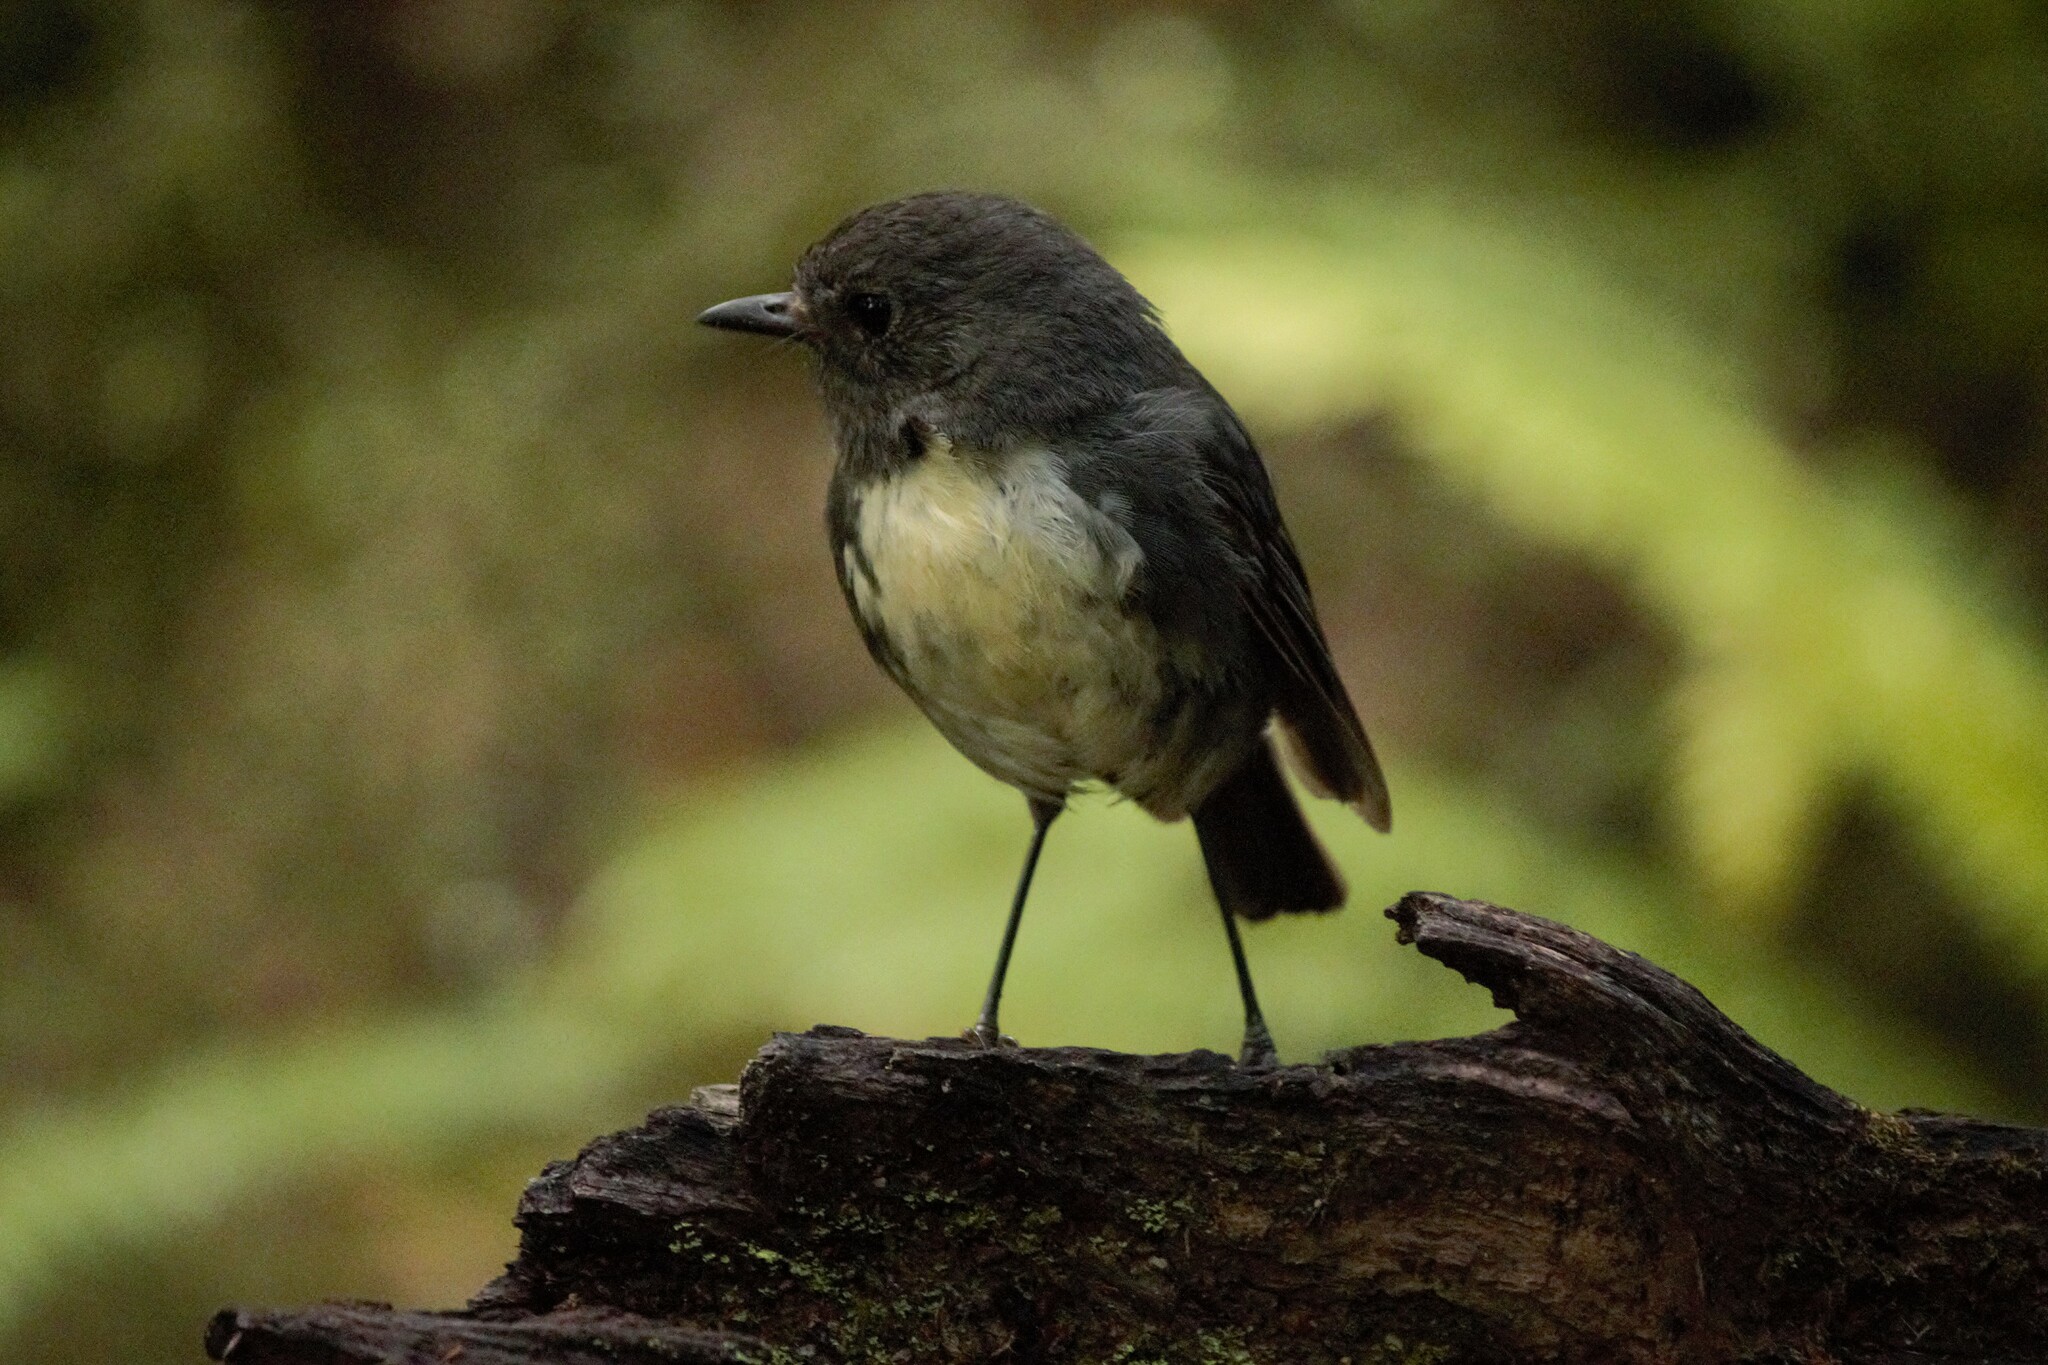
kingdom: Animalia
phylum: Chordata
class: Aves
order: Passeriformes
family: Petroicidae
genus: Petroica
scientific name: Petroica australis
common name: New zealand robin
